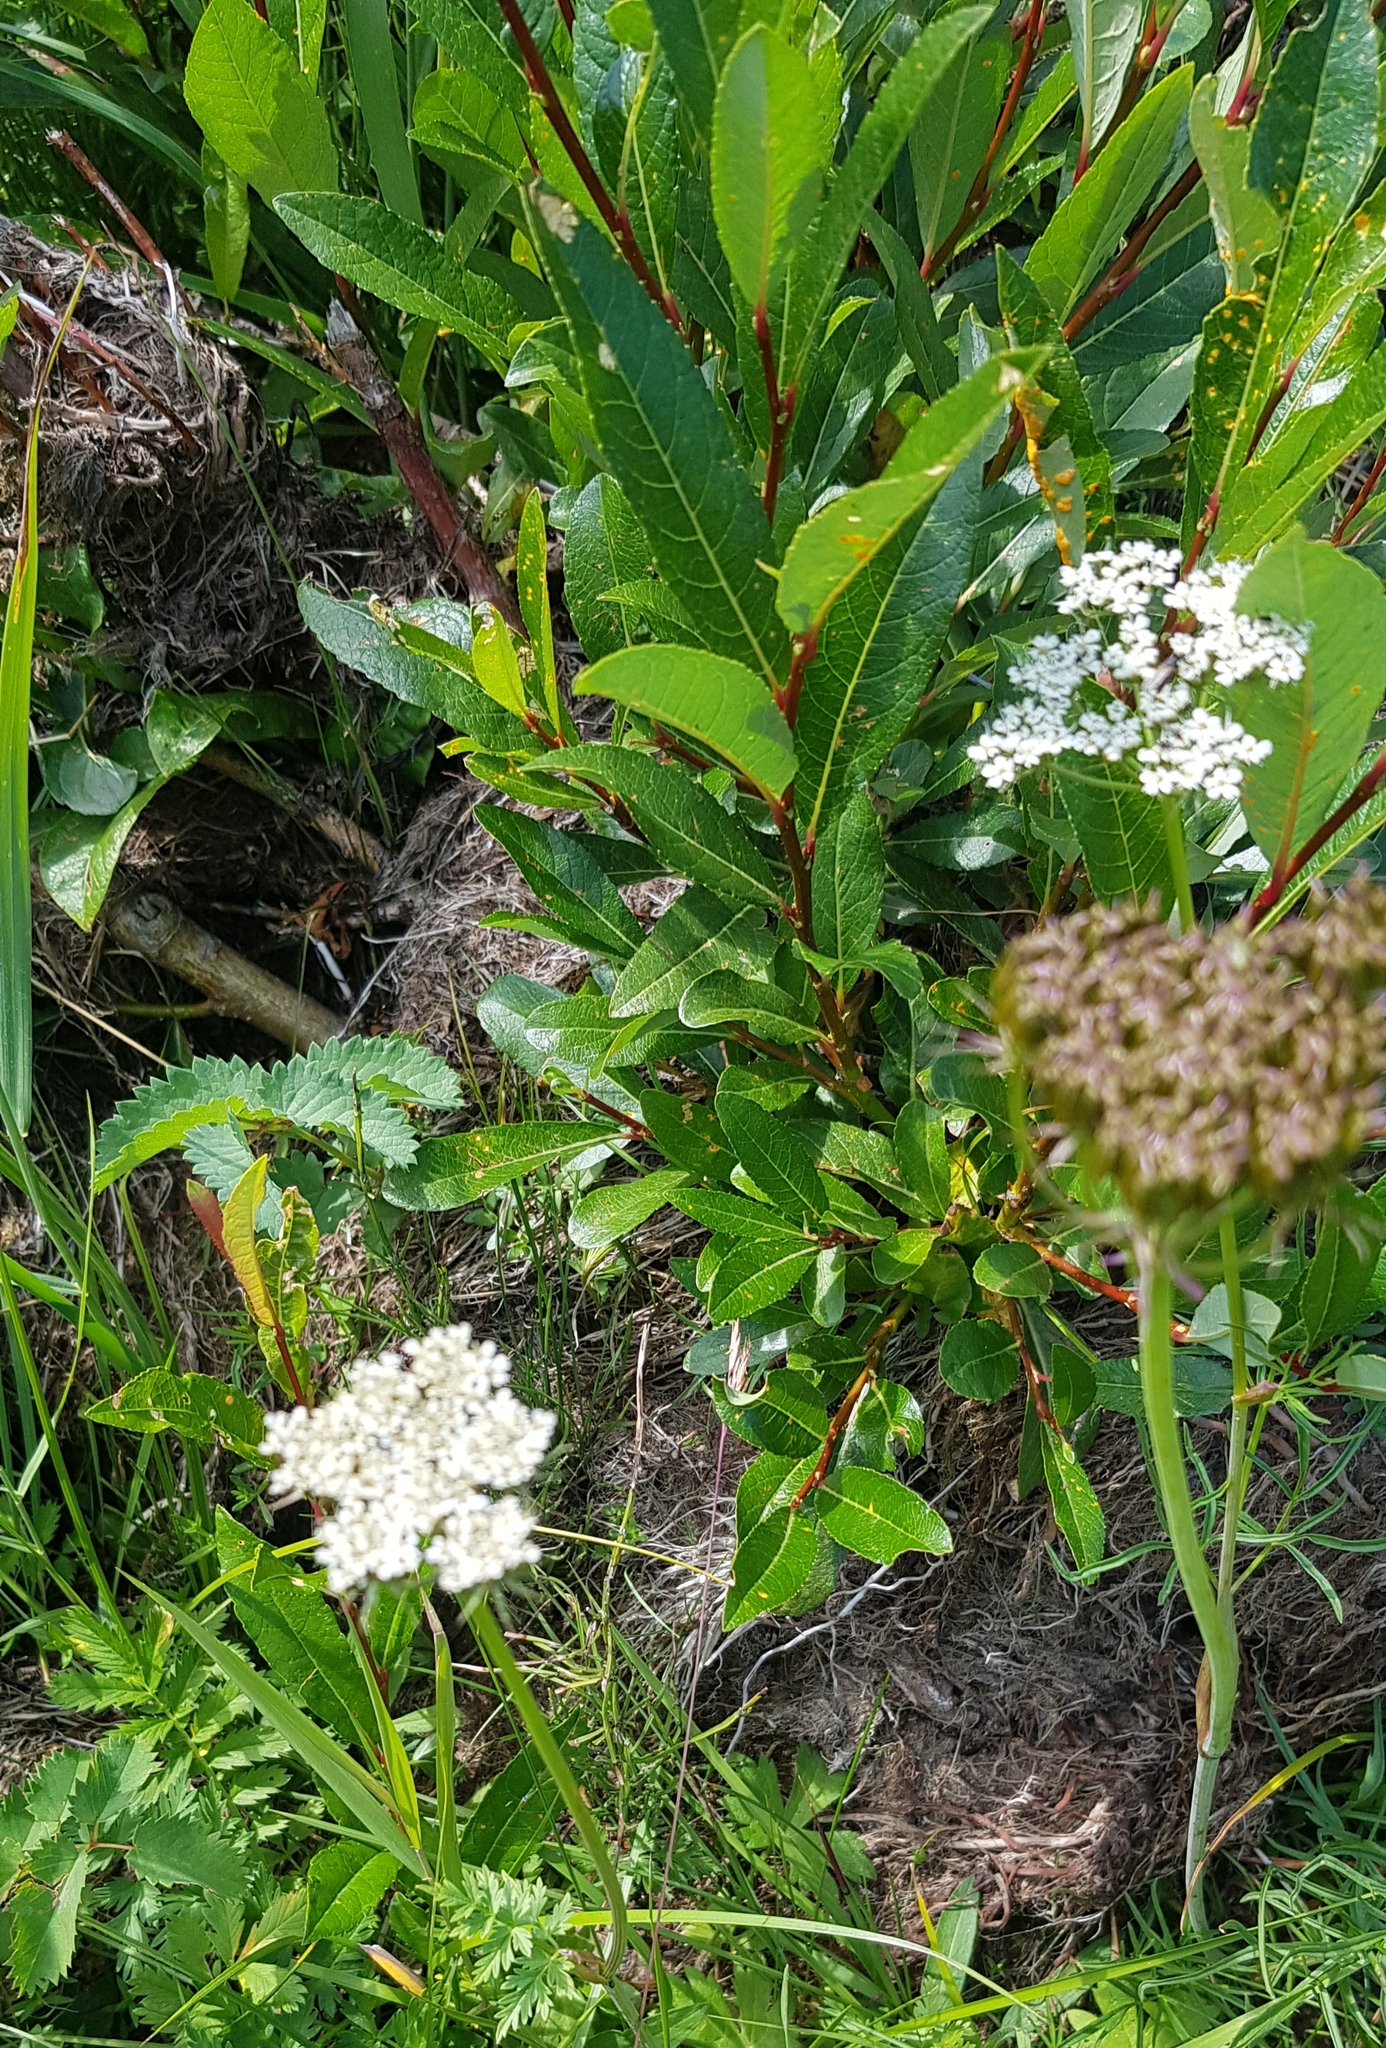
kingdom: Plantae
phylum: Tracheophyta
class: Magnoliopsida
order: Apiales
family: Apiaceae
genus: Pachypleurum
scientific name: Pachypleurum mutellinoides
